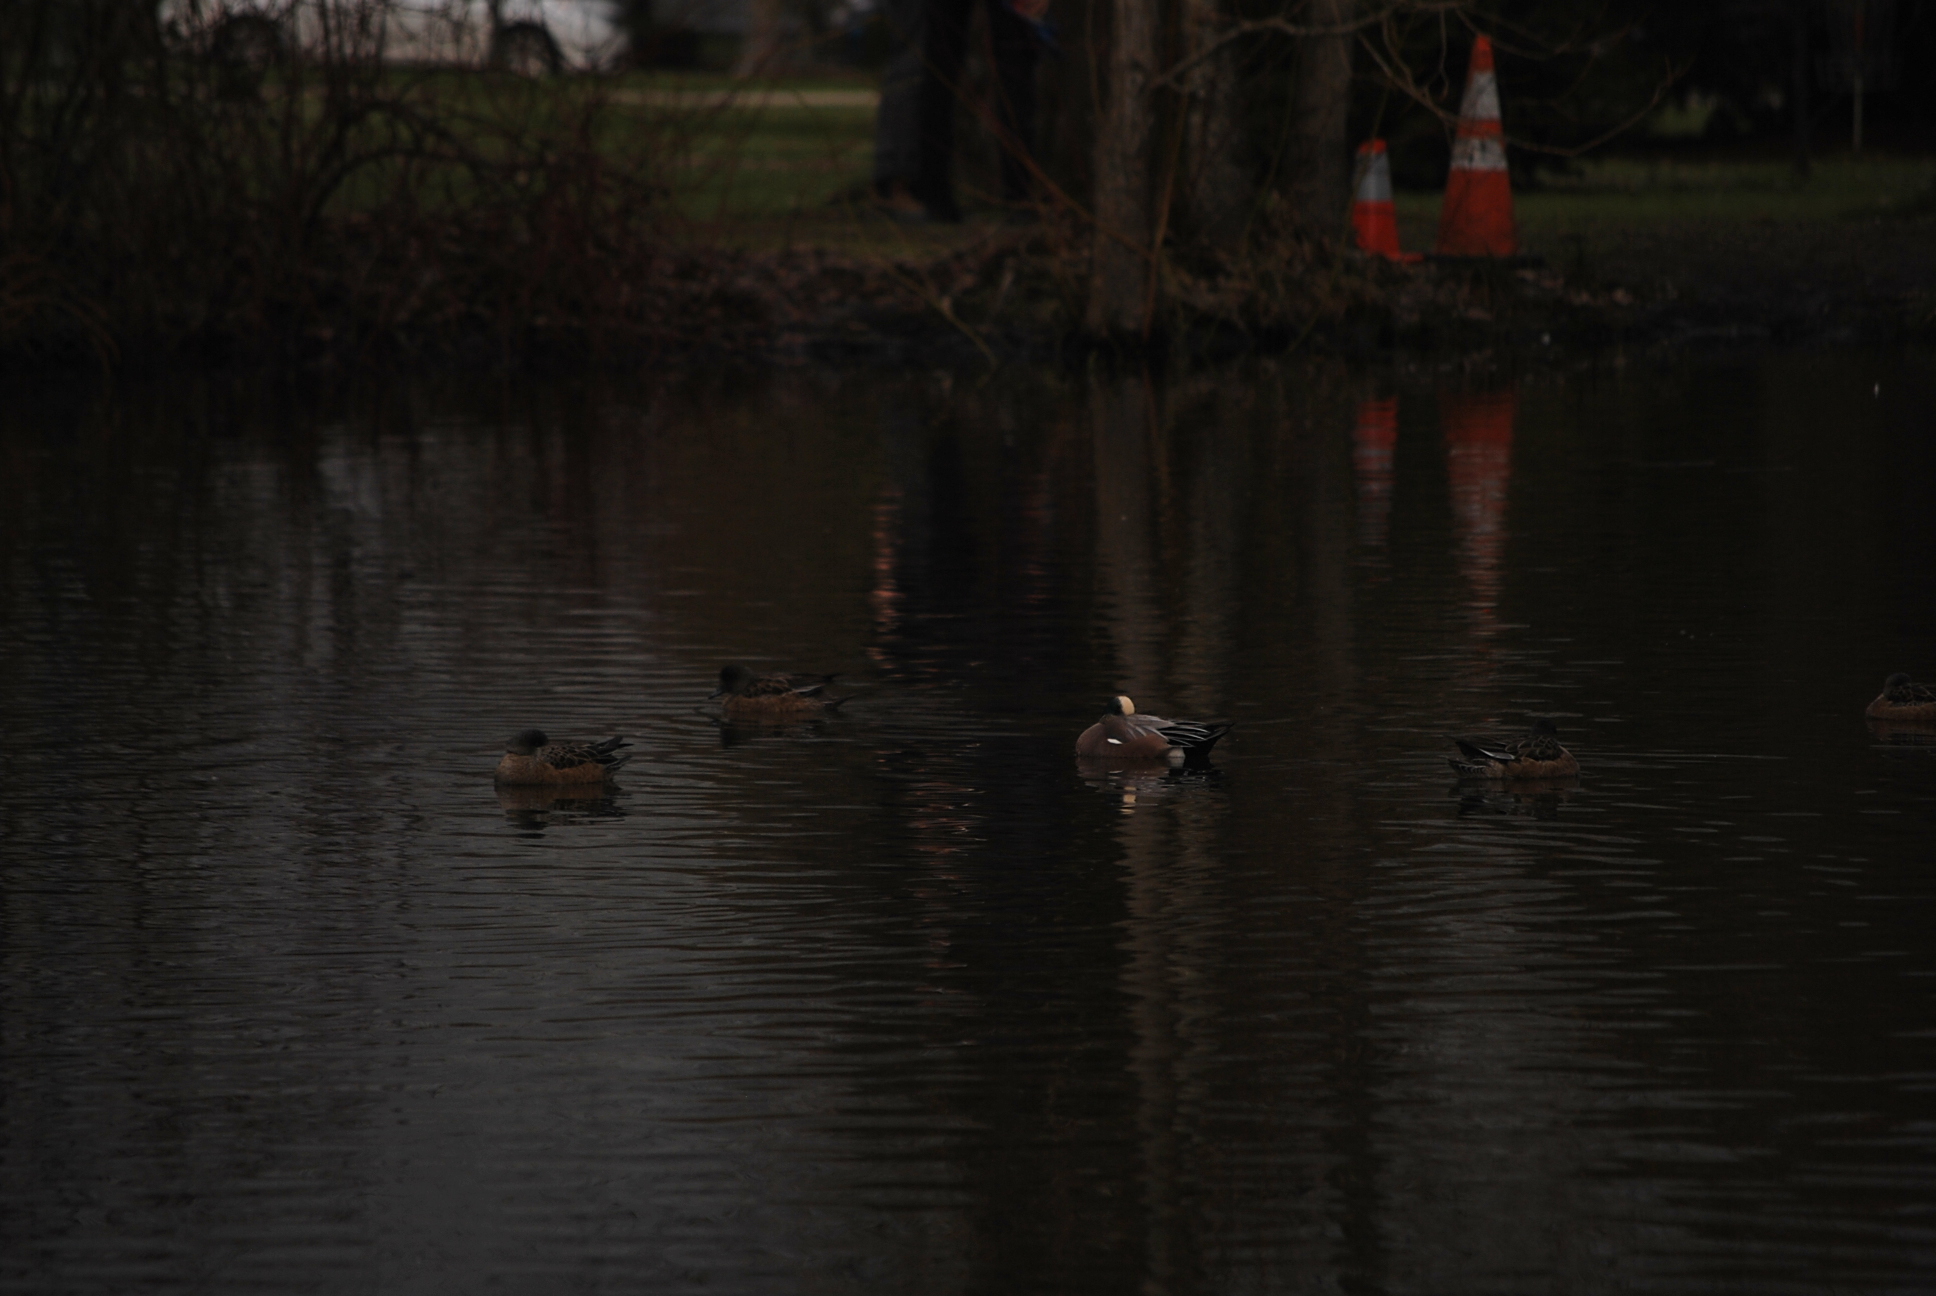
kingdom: Animalia
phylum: Chordata
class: Aves
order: Anseriformes
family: Anatidae
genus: Mareca
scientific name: Mareca americana
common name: American wigeon
